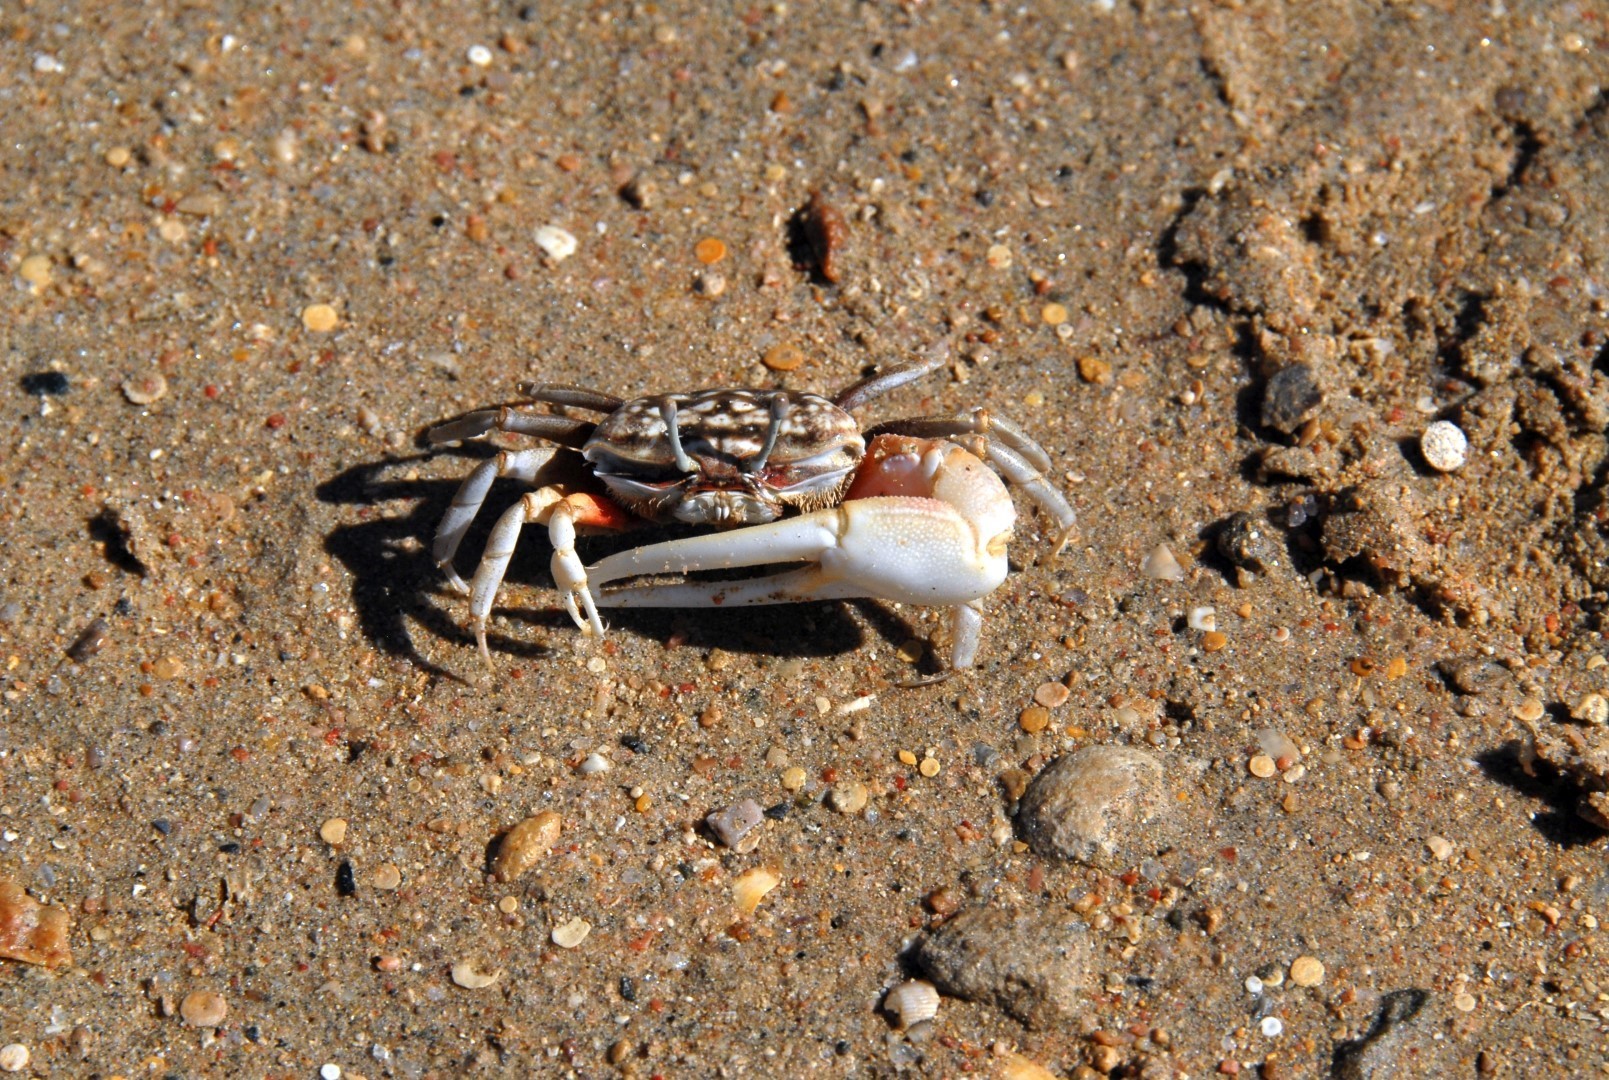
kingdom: Animalia
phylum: Arthropoda
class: Malacostraca
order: Decapoda
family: Ocypodidae
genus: Cranuca
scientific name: Cranuca inversa
